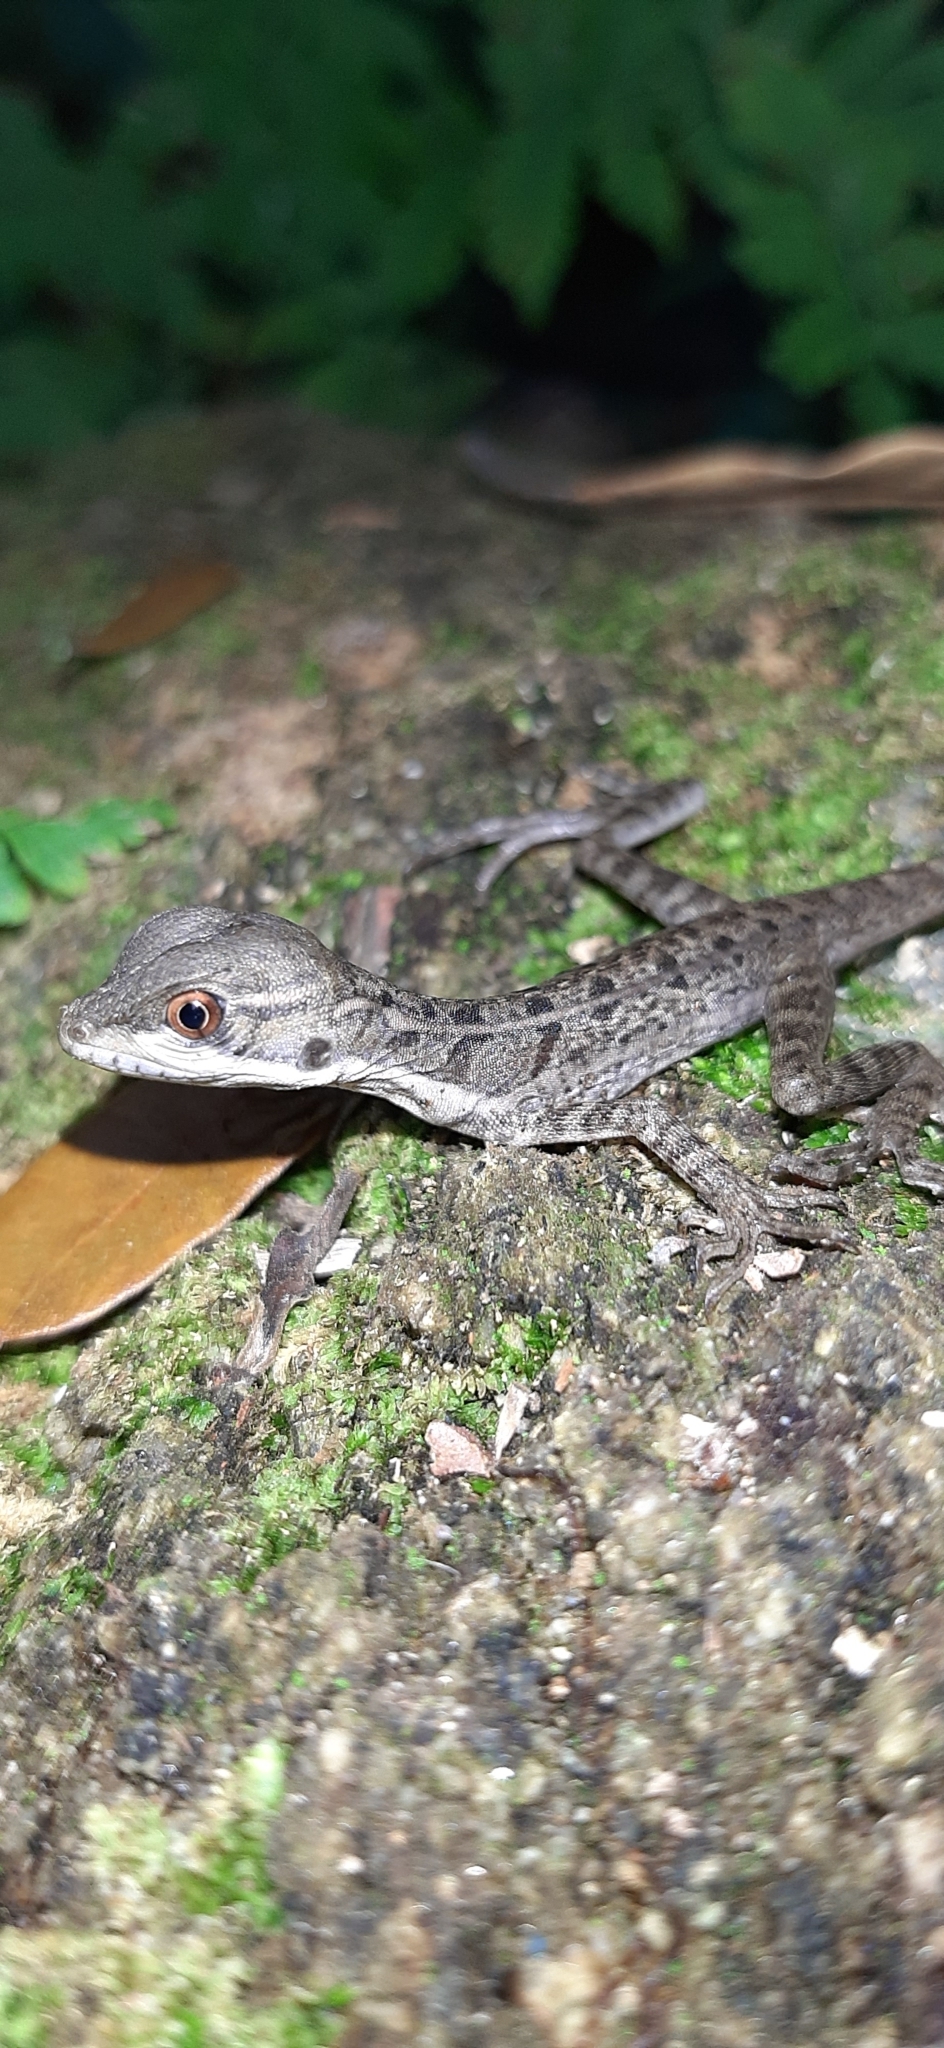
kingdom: Animalia
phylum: Chordata
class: Squamata
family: Corytophanidae
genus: Basiliscus
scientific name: Basiliscus basiliscus
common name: Common basilisk
